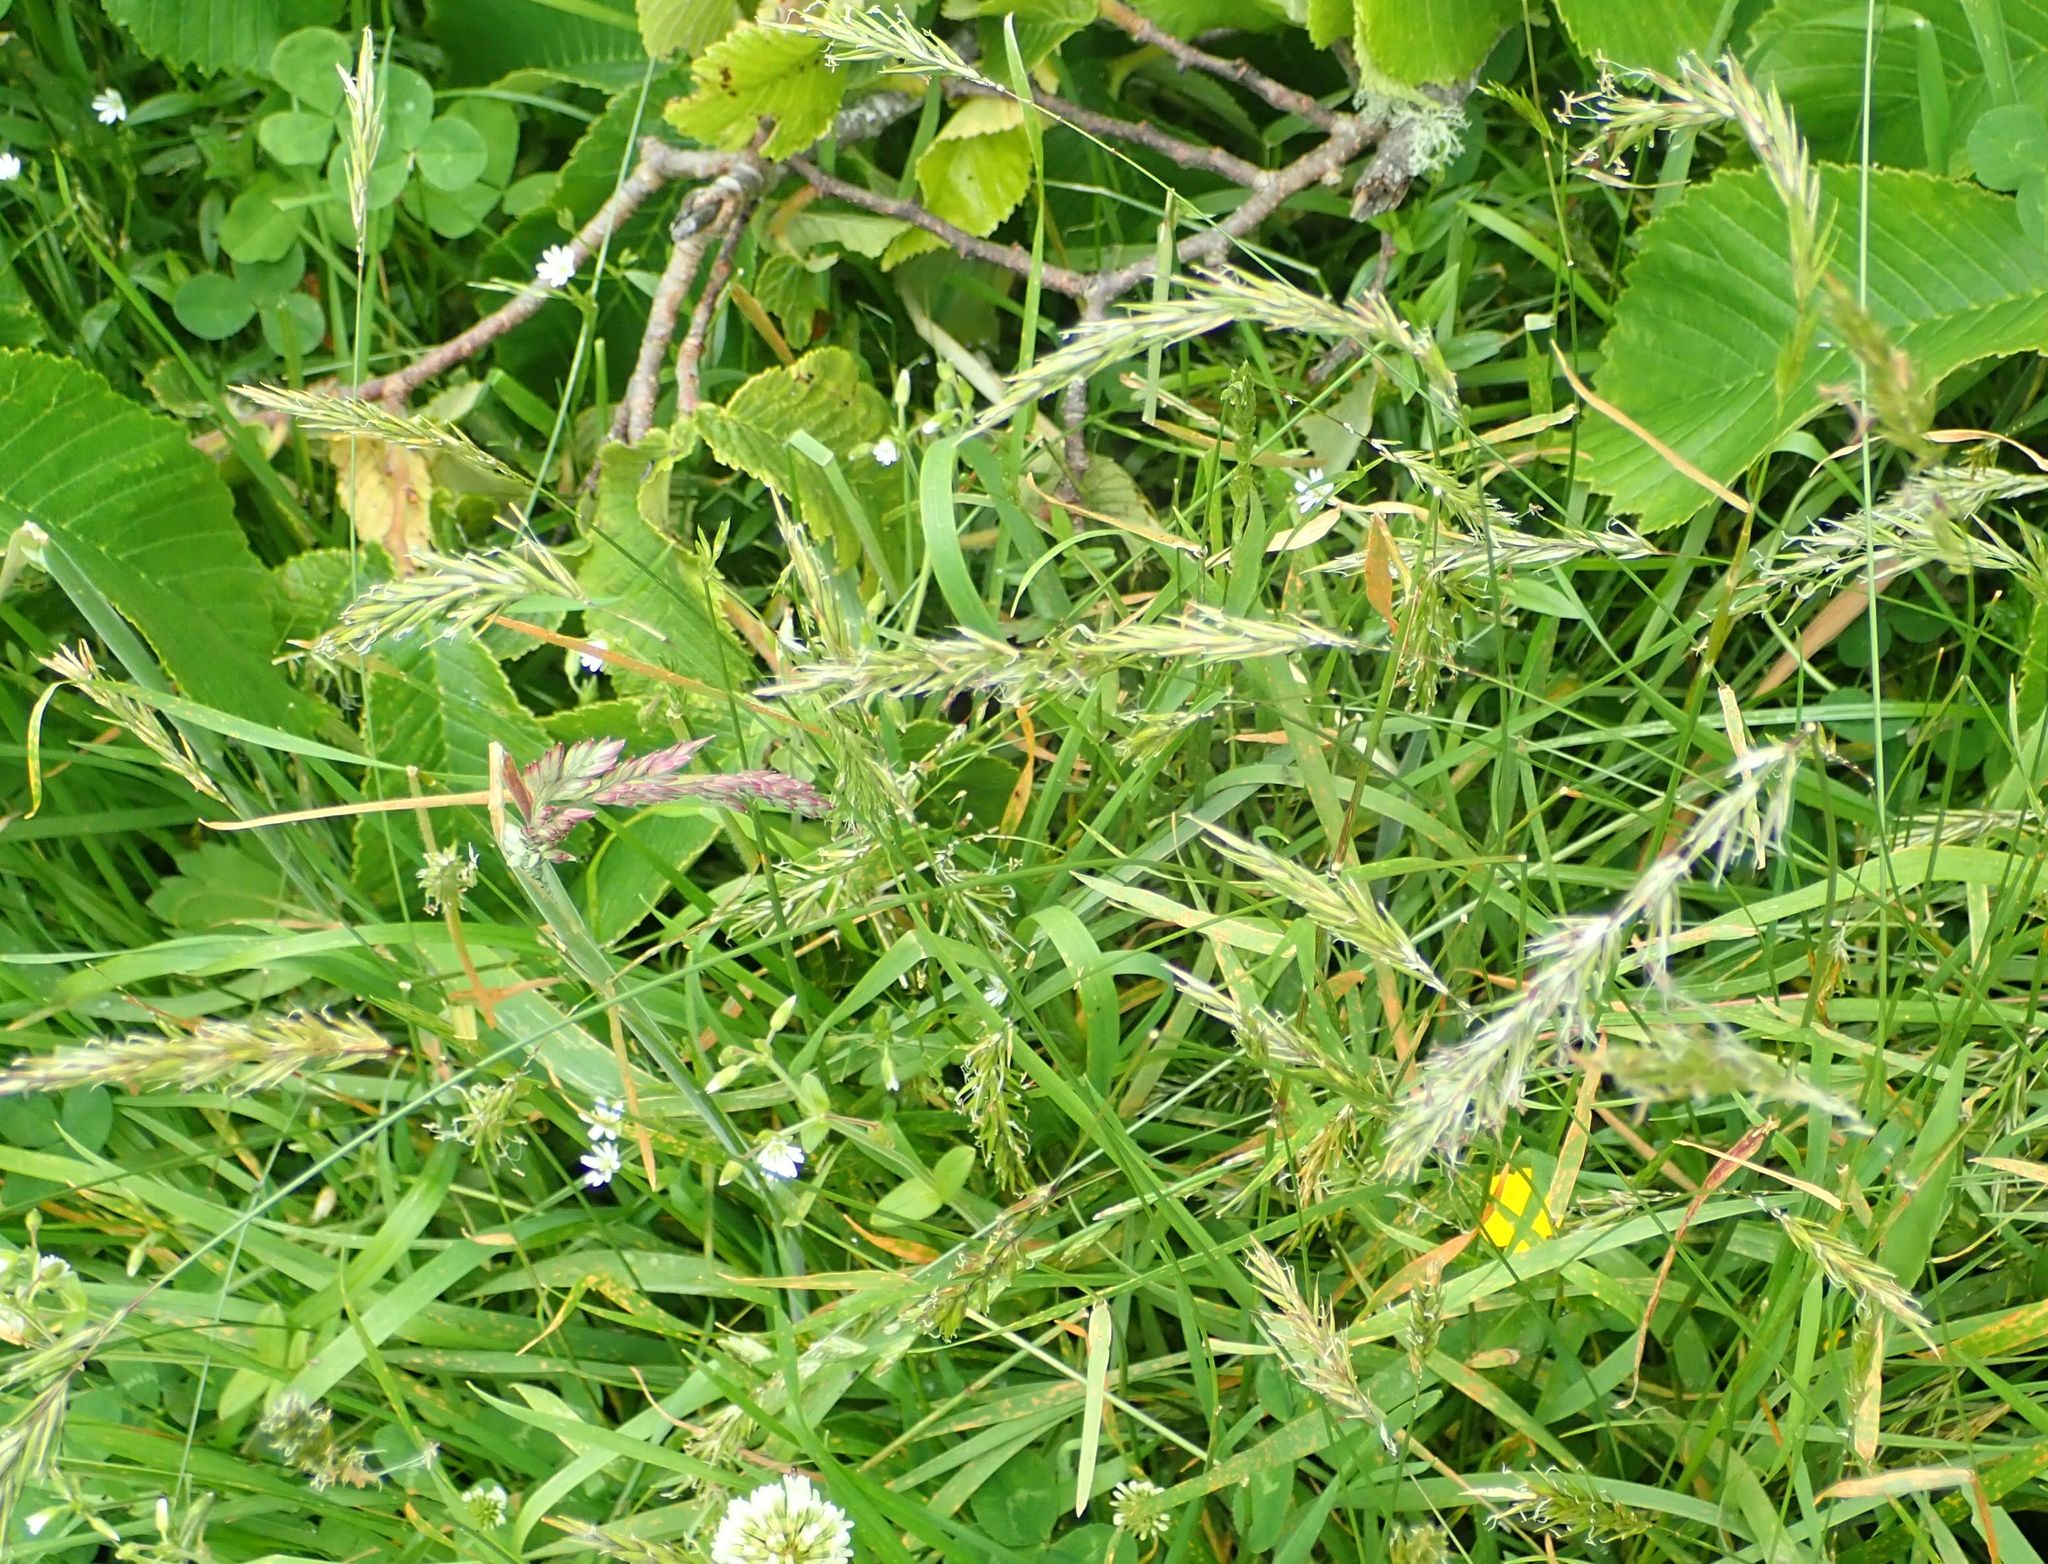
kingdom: Plantae
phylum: Tracheophyta
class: Liliopsida
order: Poales
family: Poaceae
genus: Anthoxanthum
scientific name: Anthoxanthum odoratum
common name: Sweet vernalgrass
